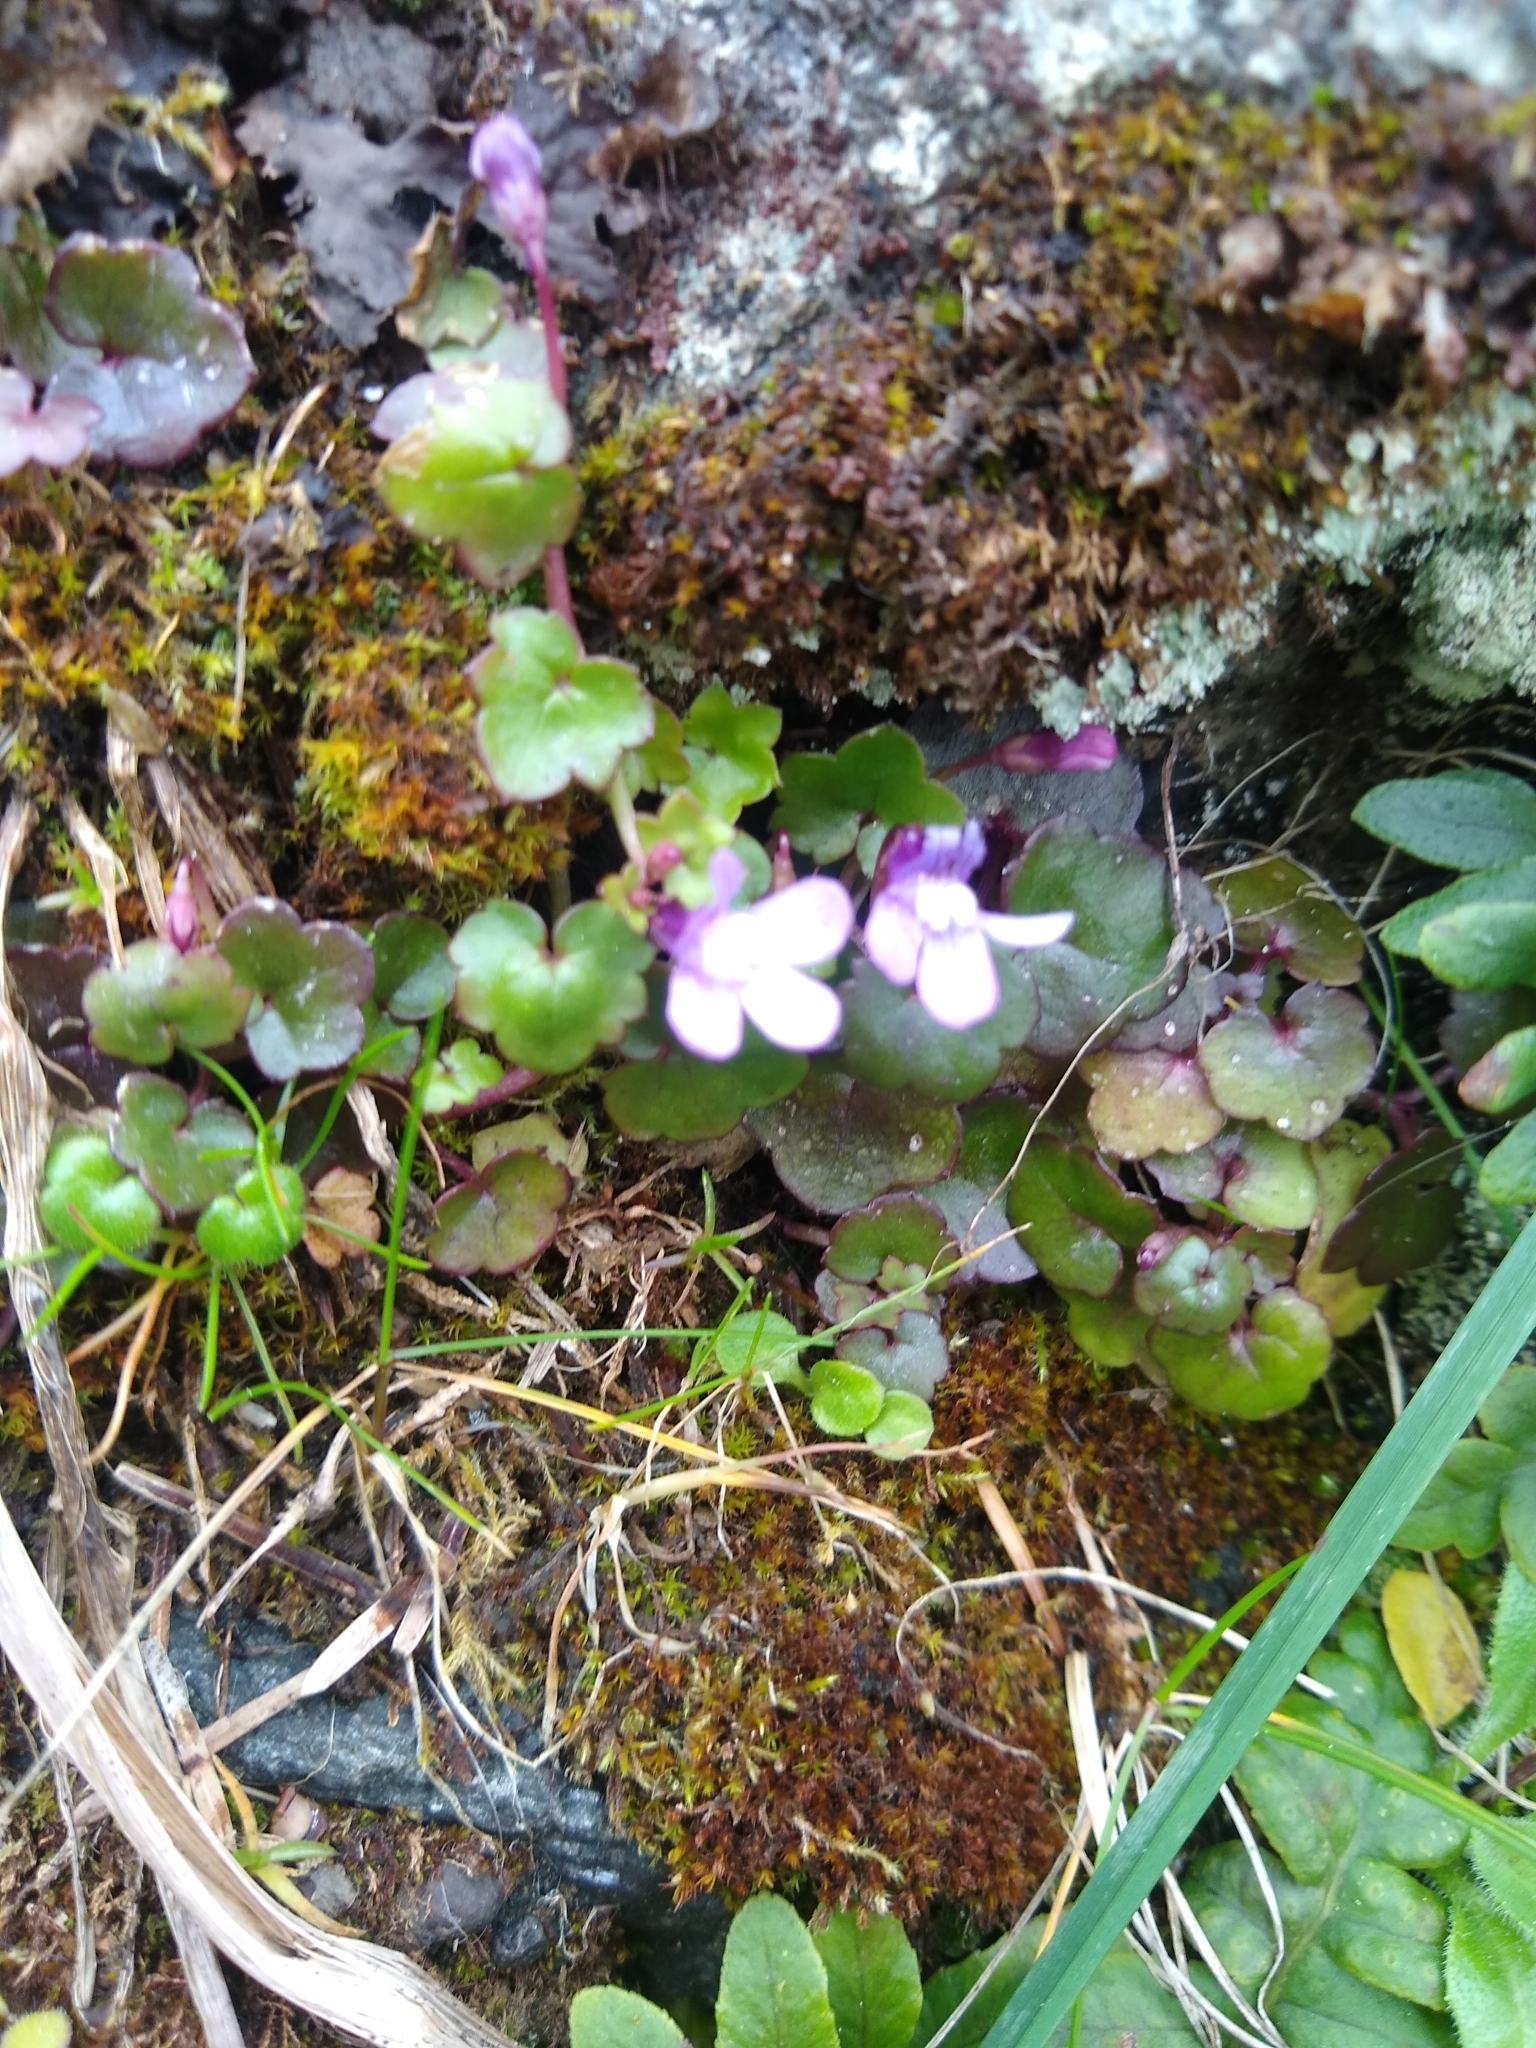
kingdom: Plantae
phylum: Tracheophyta
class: Magnoliopsida
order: Lamiales
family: Plantaginaceae
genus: Cymbalaria
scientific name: Cymbalaria muralis
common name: Ivy-leaved toadflax
